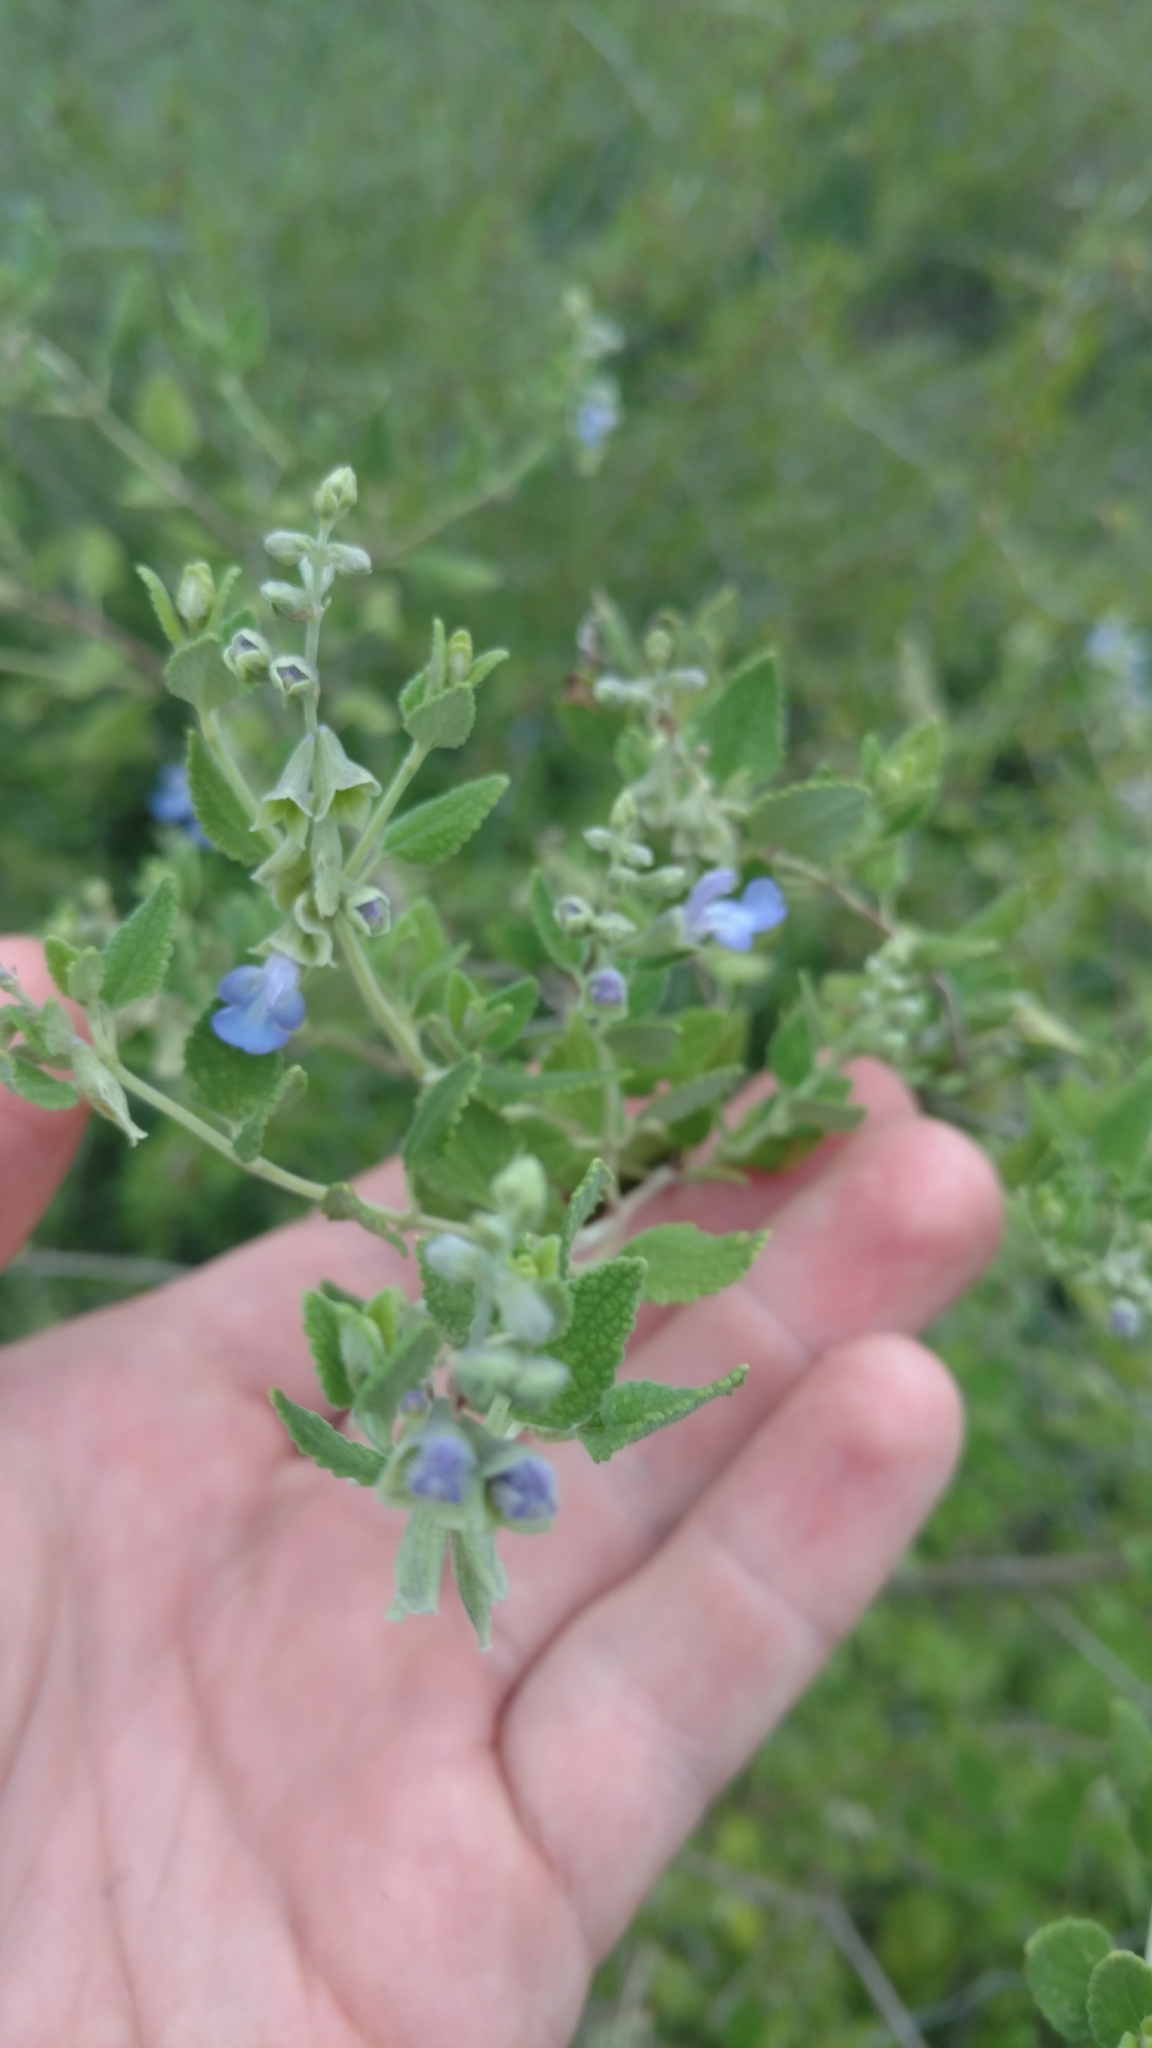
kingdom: Plantae
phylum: Tracheophyta
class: Magnoliopsida
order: Lamiales
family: Lamiaceae
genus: Salvia
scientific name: Salvia ballotiflora
